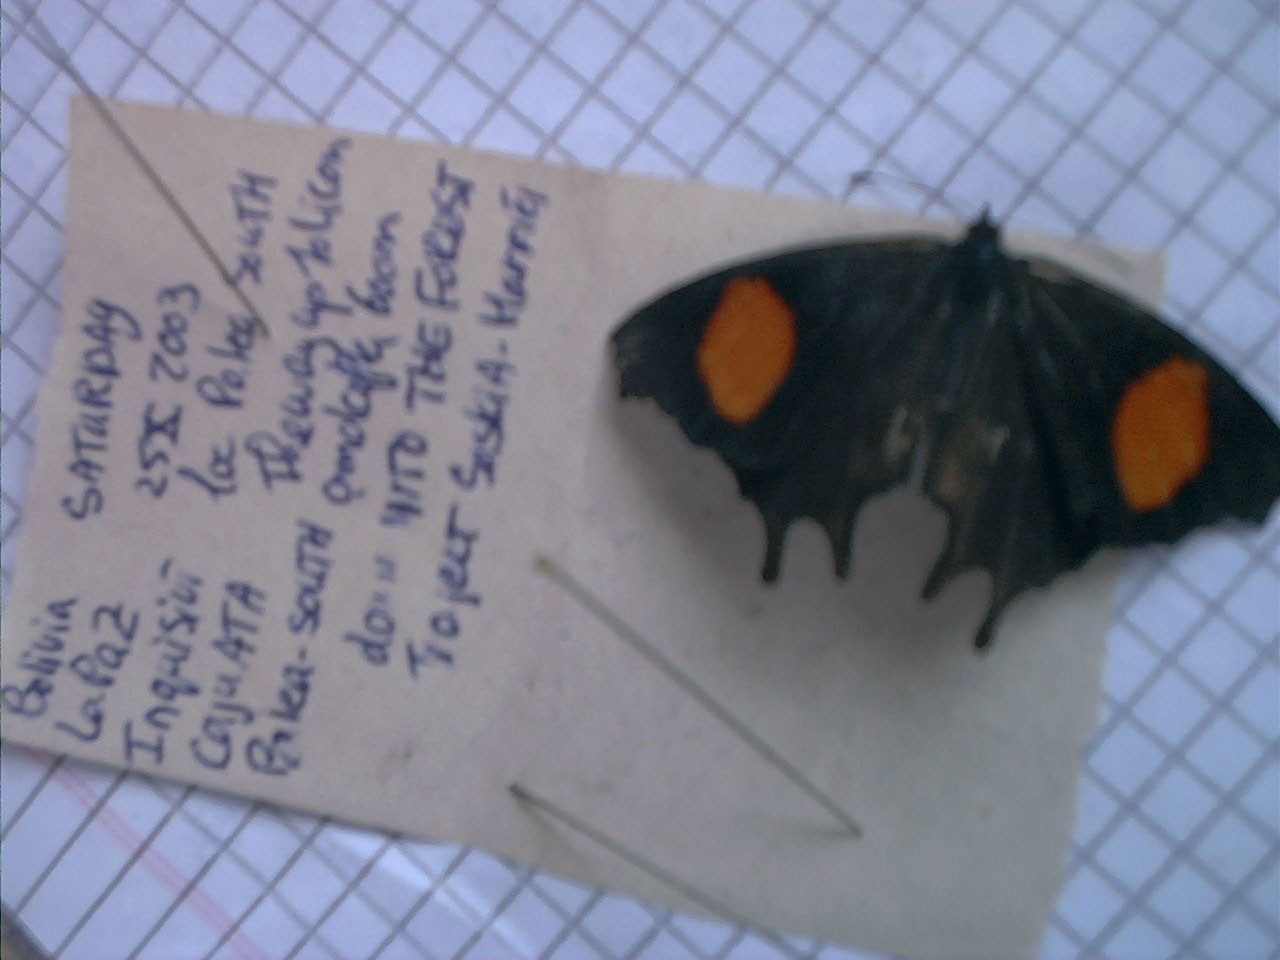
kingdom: Animalia
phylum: Arthropoda
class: Insecta
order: Lepidoptera
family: Nymphalidae
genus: Daedalma
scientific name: Daedalma dinias
